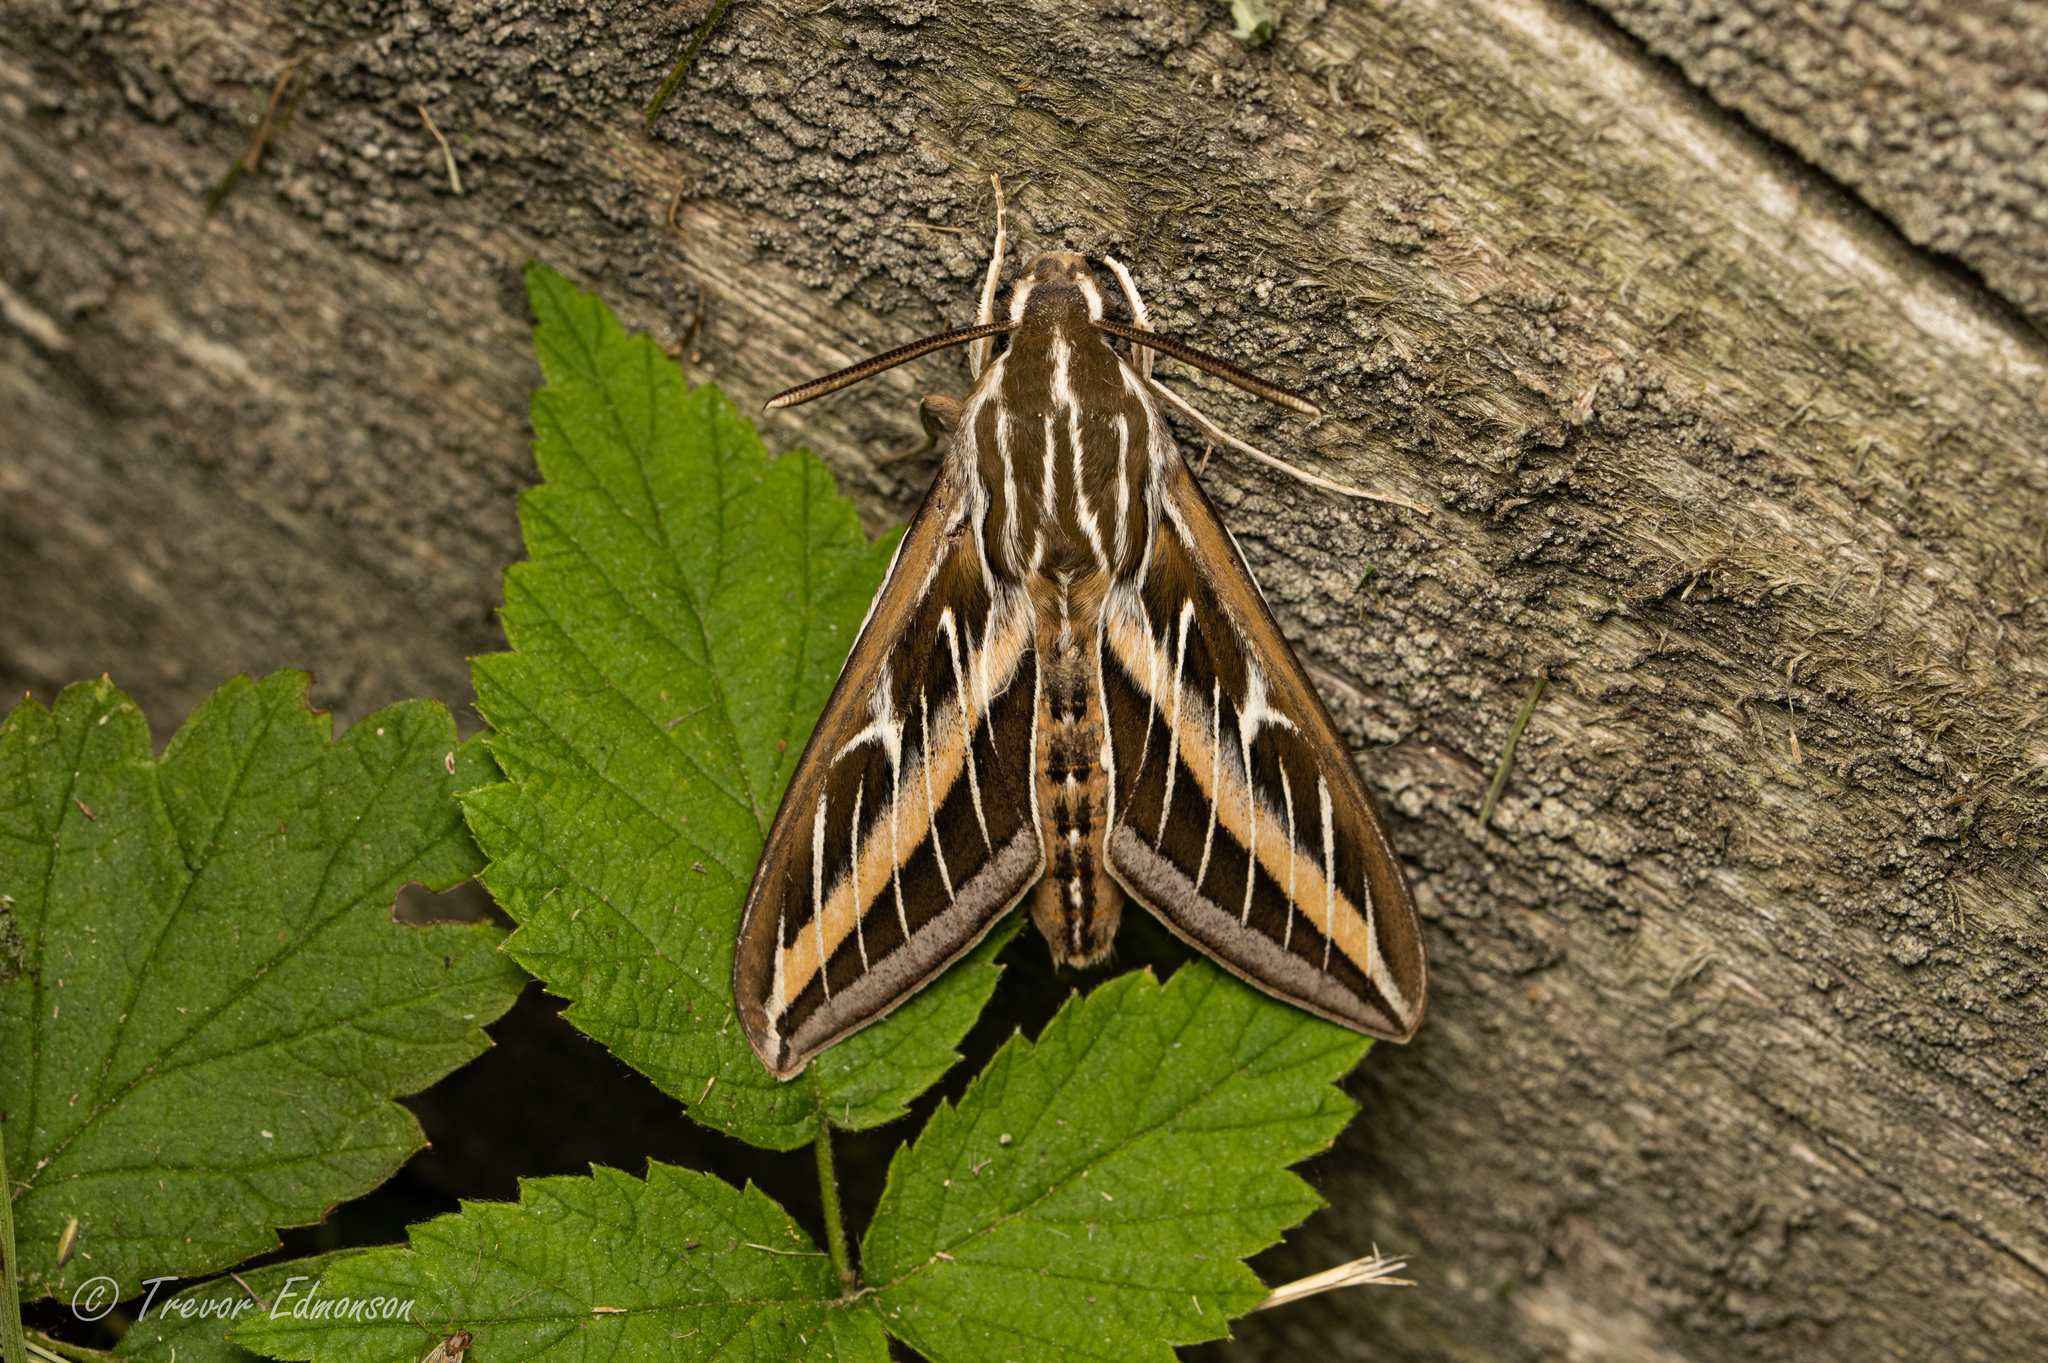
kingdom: Animalia
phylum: Arthropoda
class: Insecta
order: Lepidoptera
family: Sphingidae
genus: Hyles
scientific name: Hyles lineata
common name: White-lined sphinx
